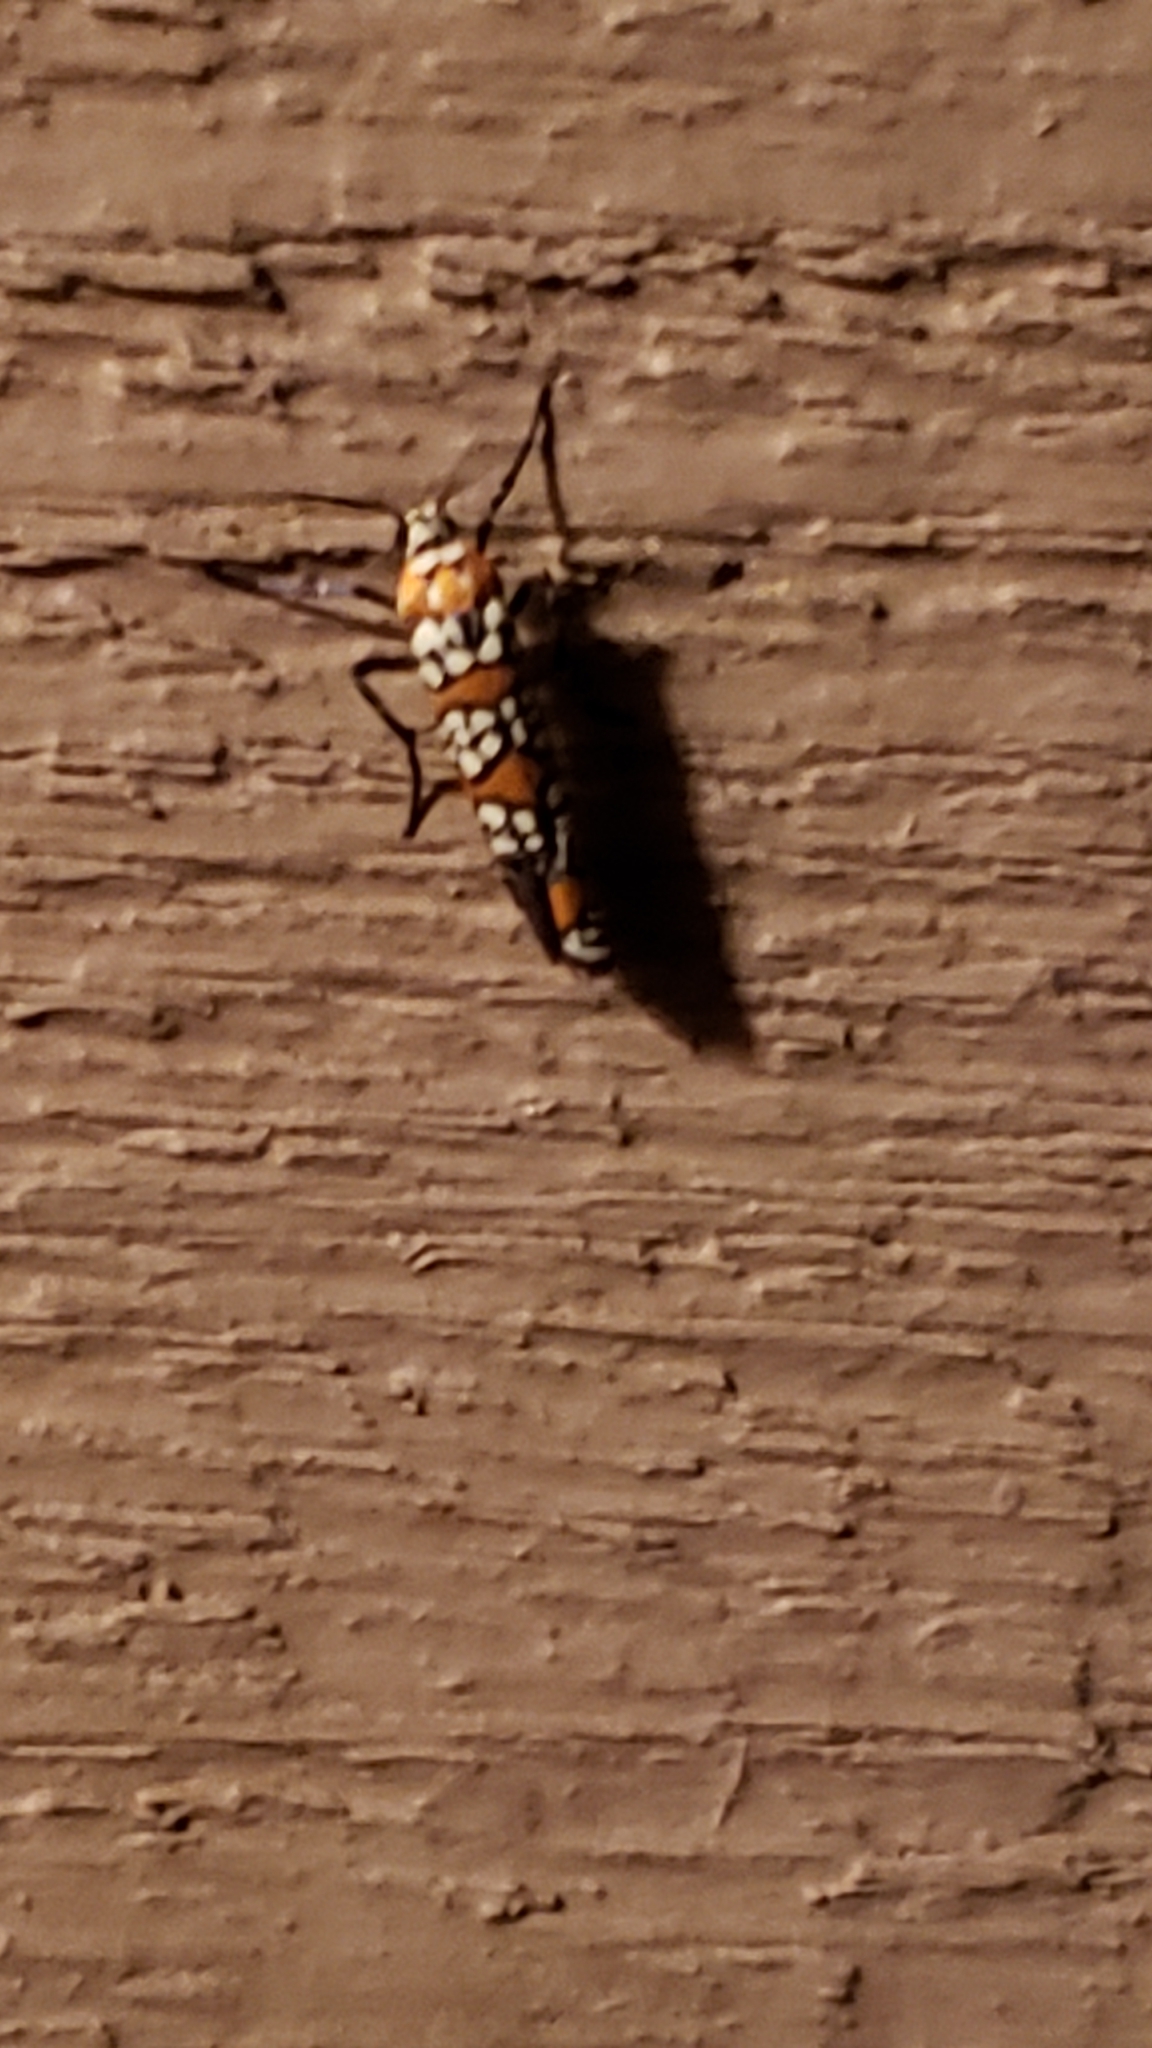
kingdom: Animalia
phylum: Arthropoda
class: Insecta
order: Lepidoptera
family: Attevidae
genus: Atteva
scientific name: Atteva punctella
